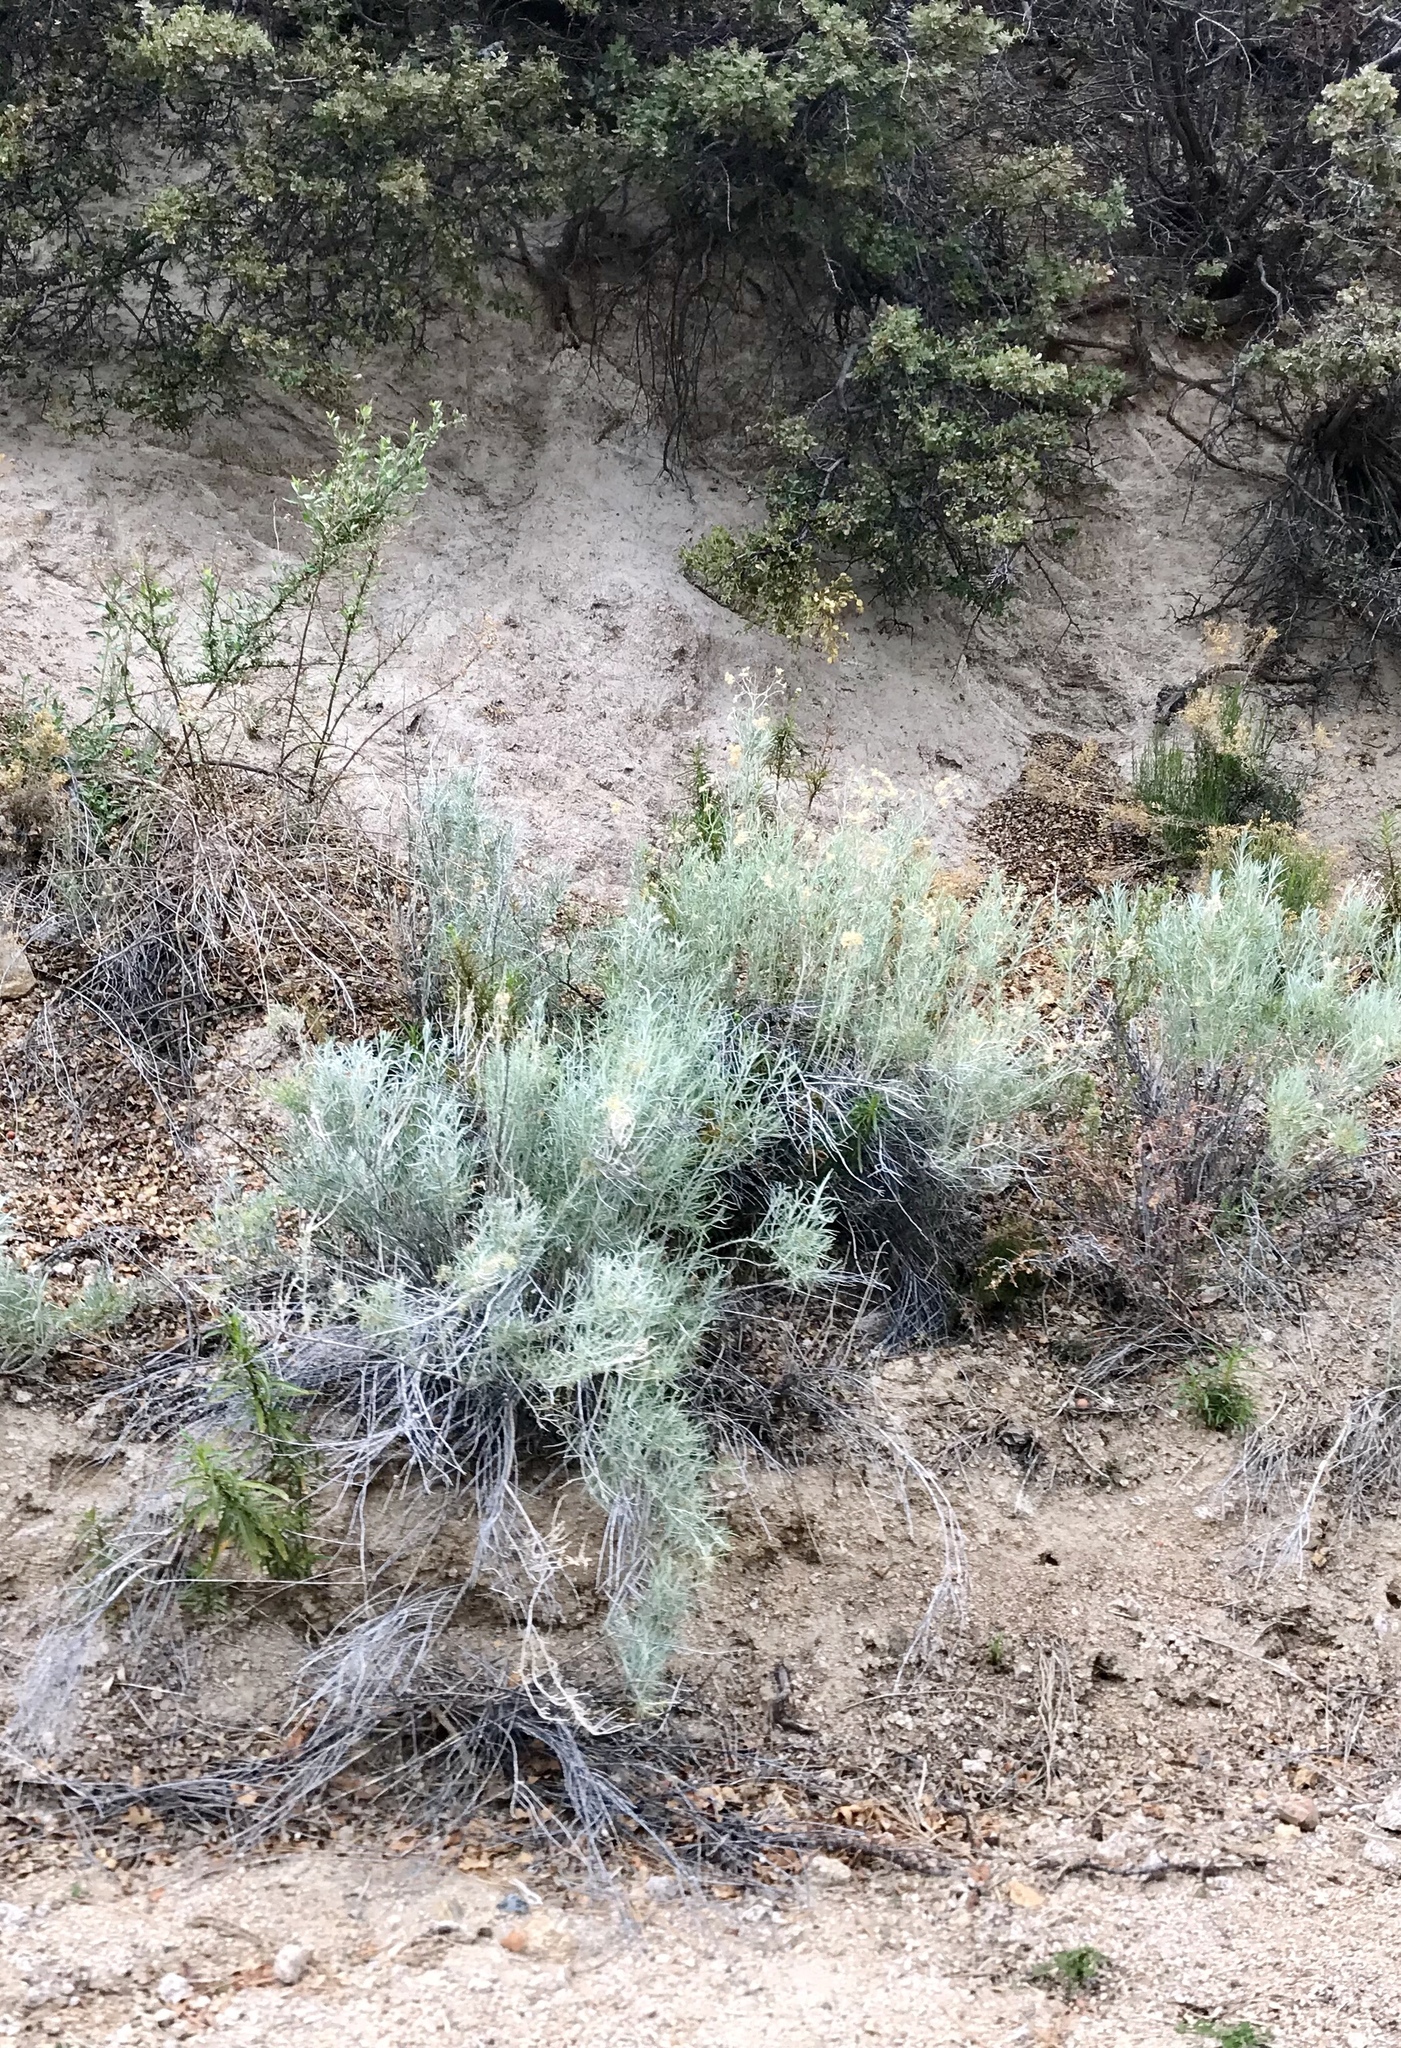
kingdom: Plantae
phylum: Tracheophyta
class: Magnoliopsida
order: Asterales
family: Asteraceae
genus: Artemisia
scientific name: Artemisia filifolia
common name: Sand-sage
